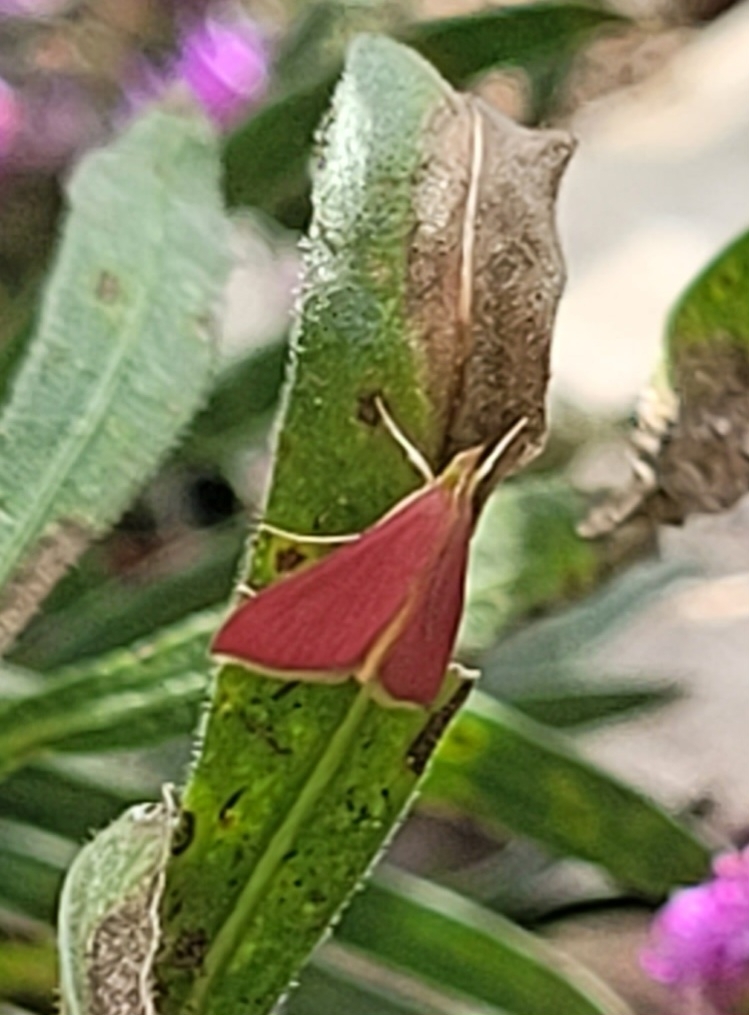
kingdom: Animalia
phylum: Arthropoda
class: Insecta
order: Lepidoptera
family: Crambidae
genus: Pyrausta
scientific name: Pyrausta inornatalis
